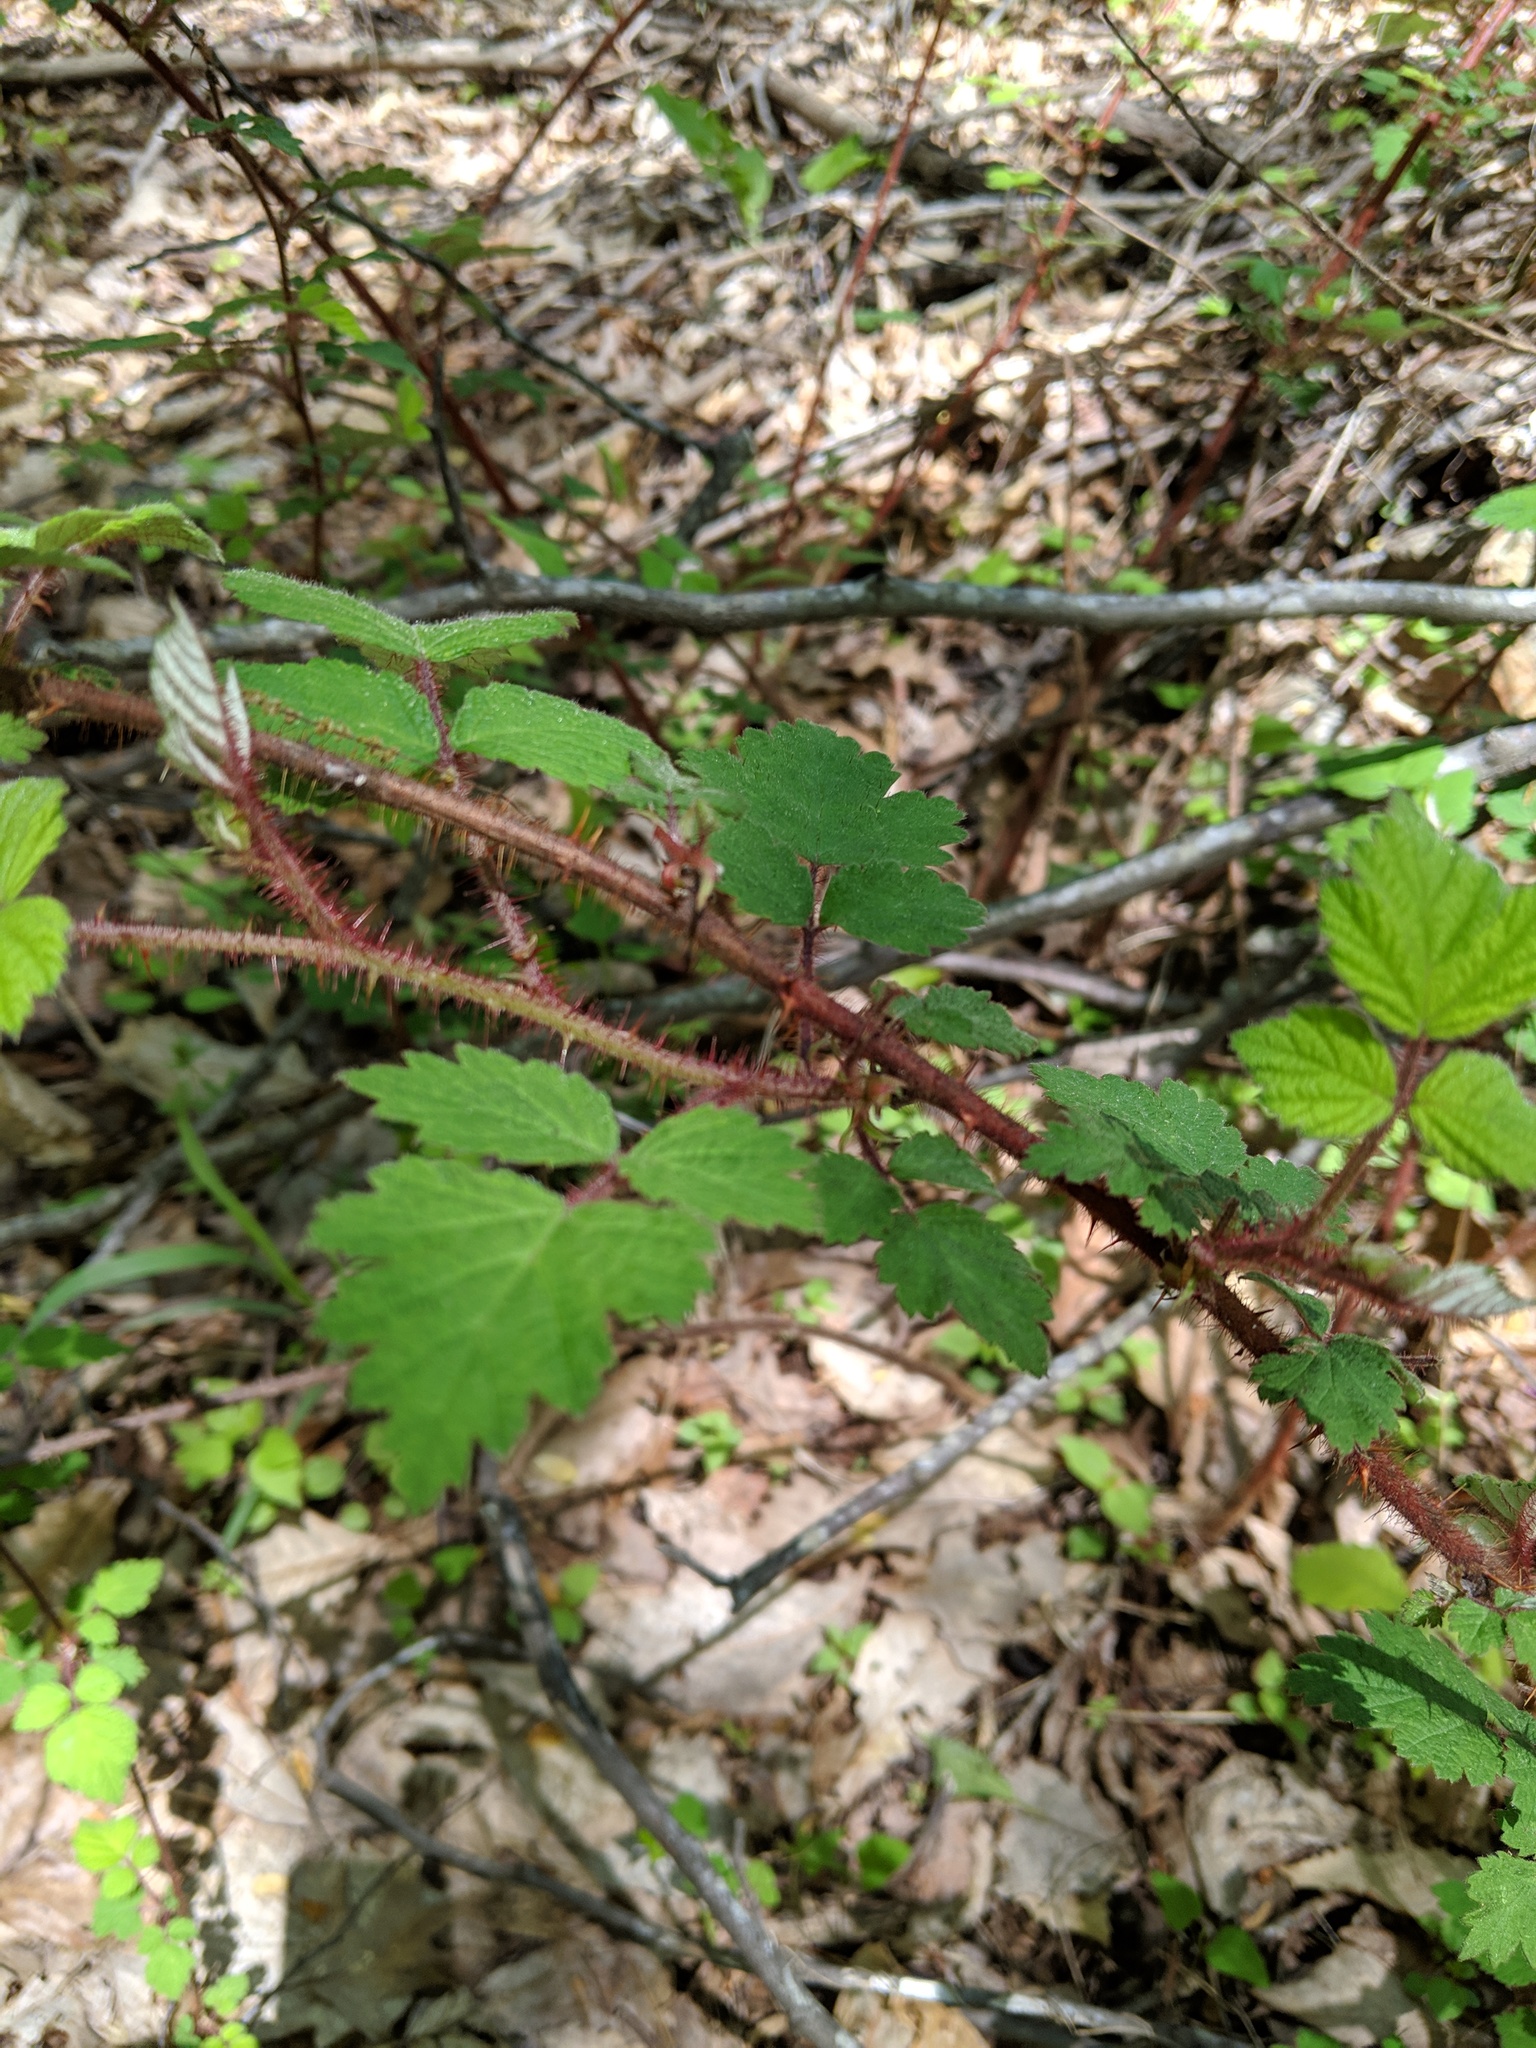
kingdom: Plantae
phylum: Tracheophyta
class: Magnoliopsida
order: Rosales
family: Rosaceae
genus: Rubus
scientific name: Rubus phoenicolasius
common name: Japanese wineberry
